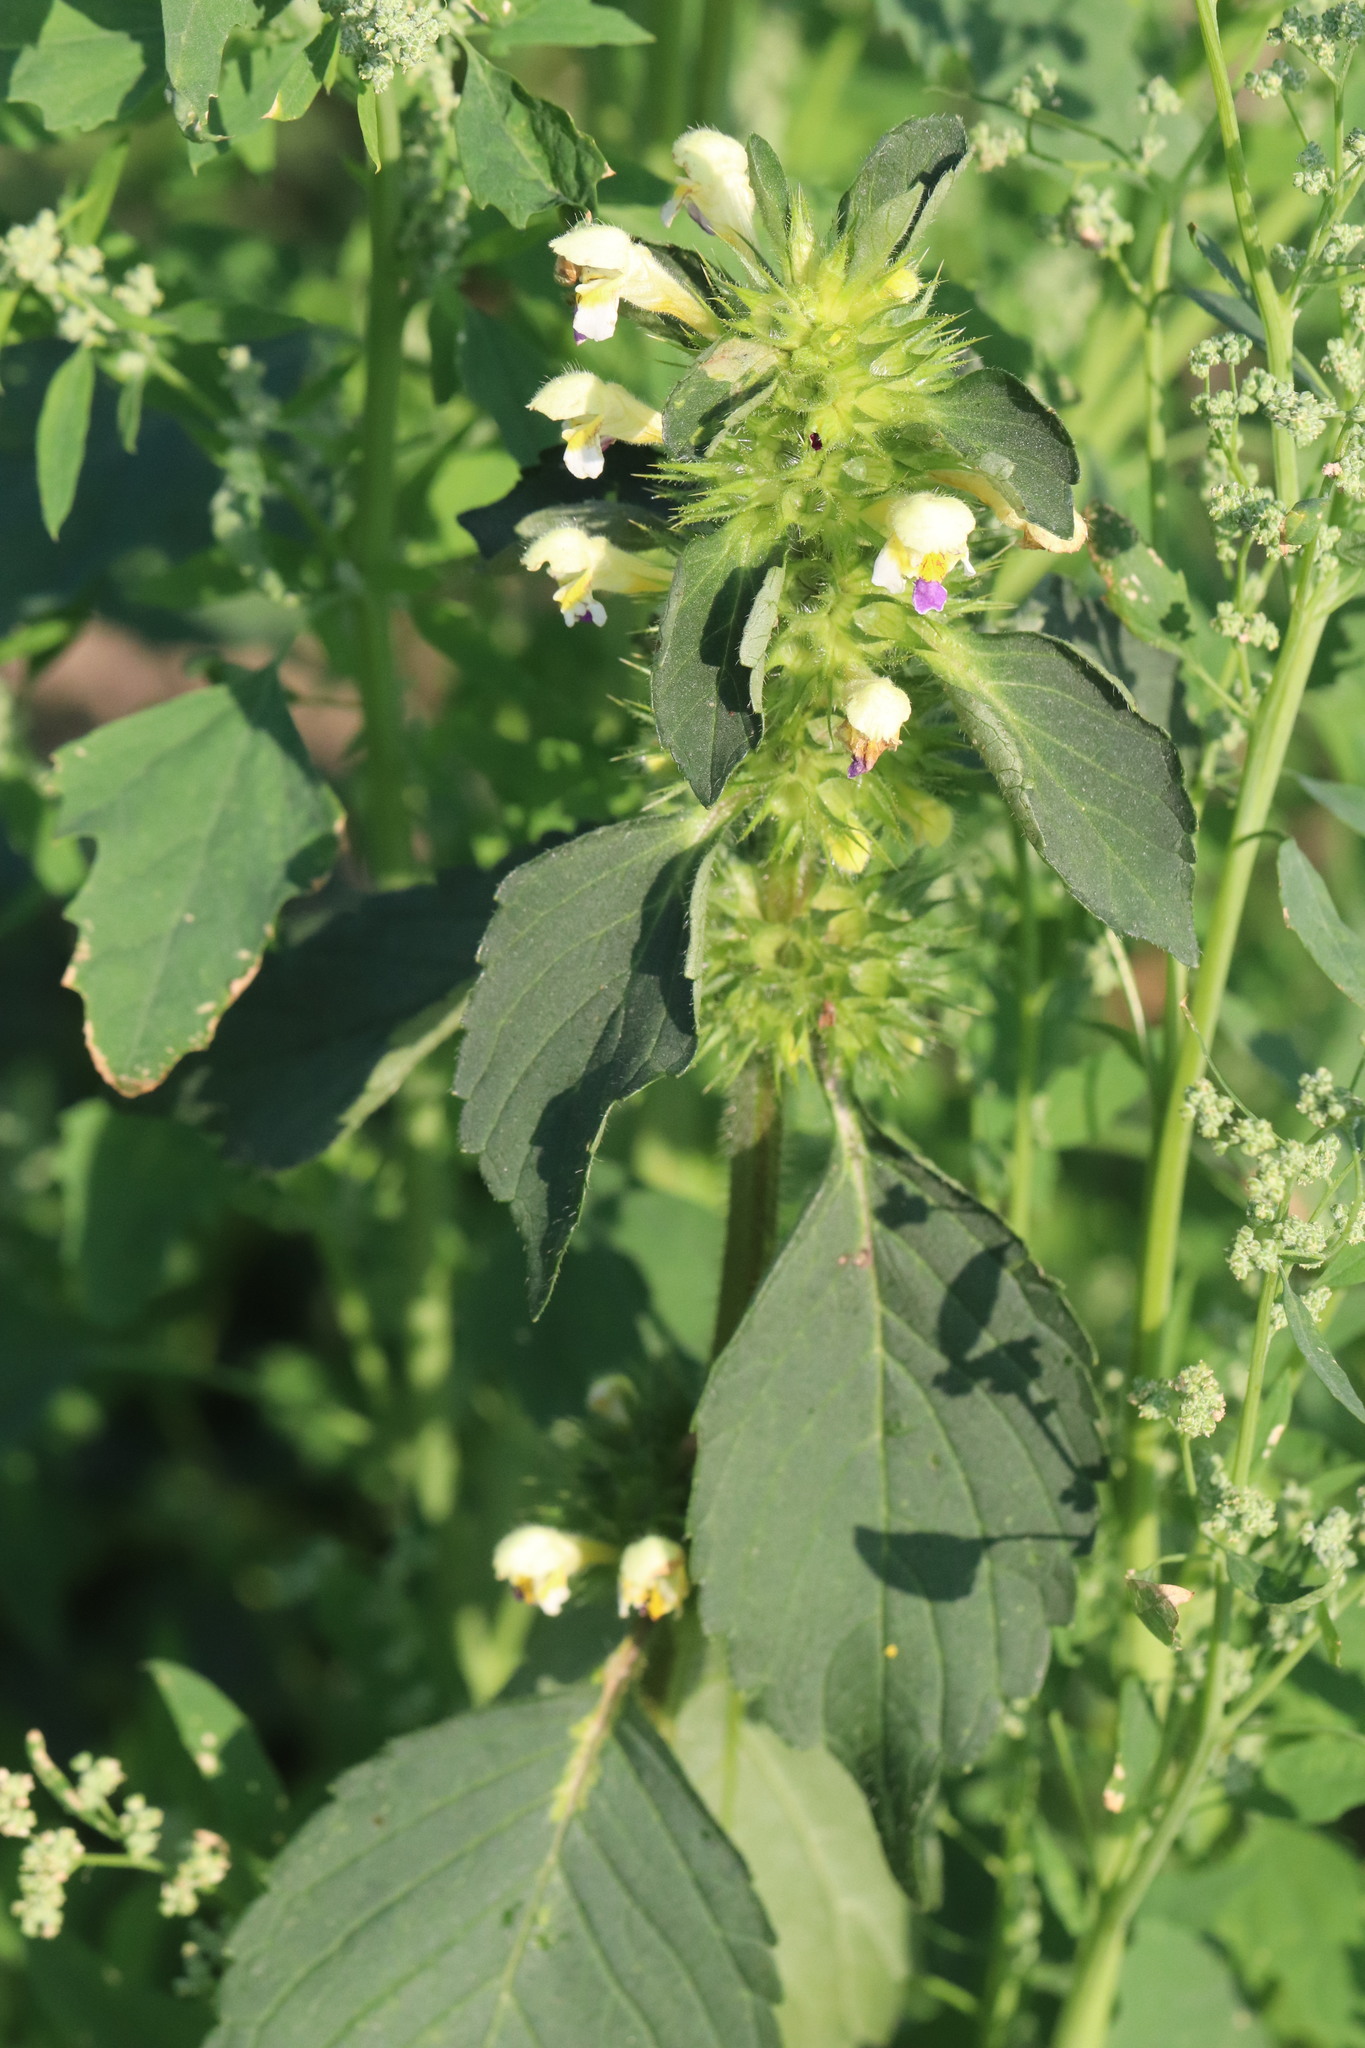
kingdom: Plantae
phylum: Tracheophyta
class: Magnoliopsida
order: Lamiales
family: Lamiaceae
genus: Galeopsis
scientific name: Galeopsis speciosa
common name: Large-flowered hemp-nettle
